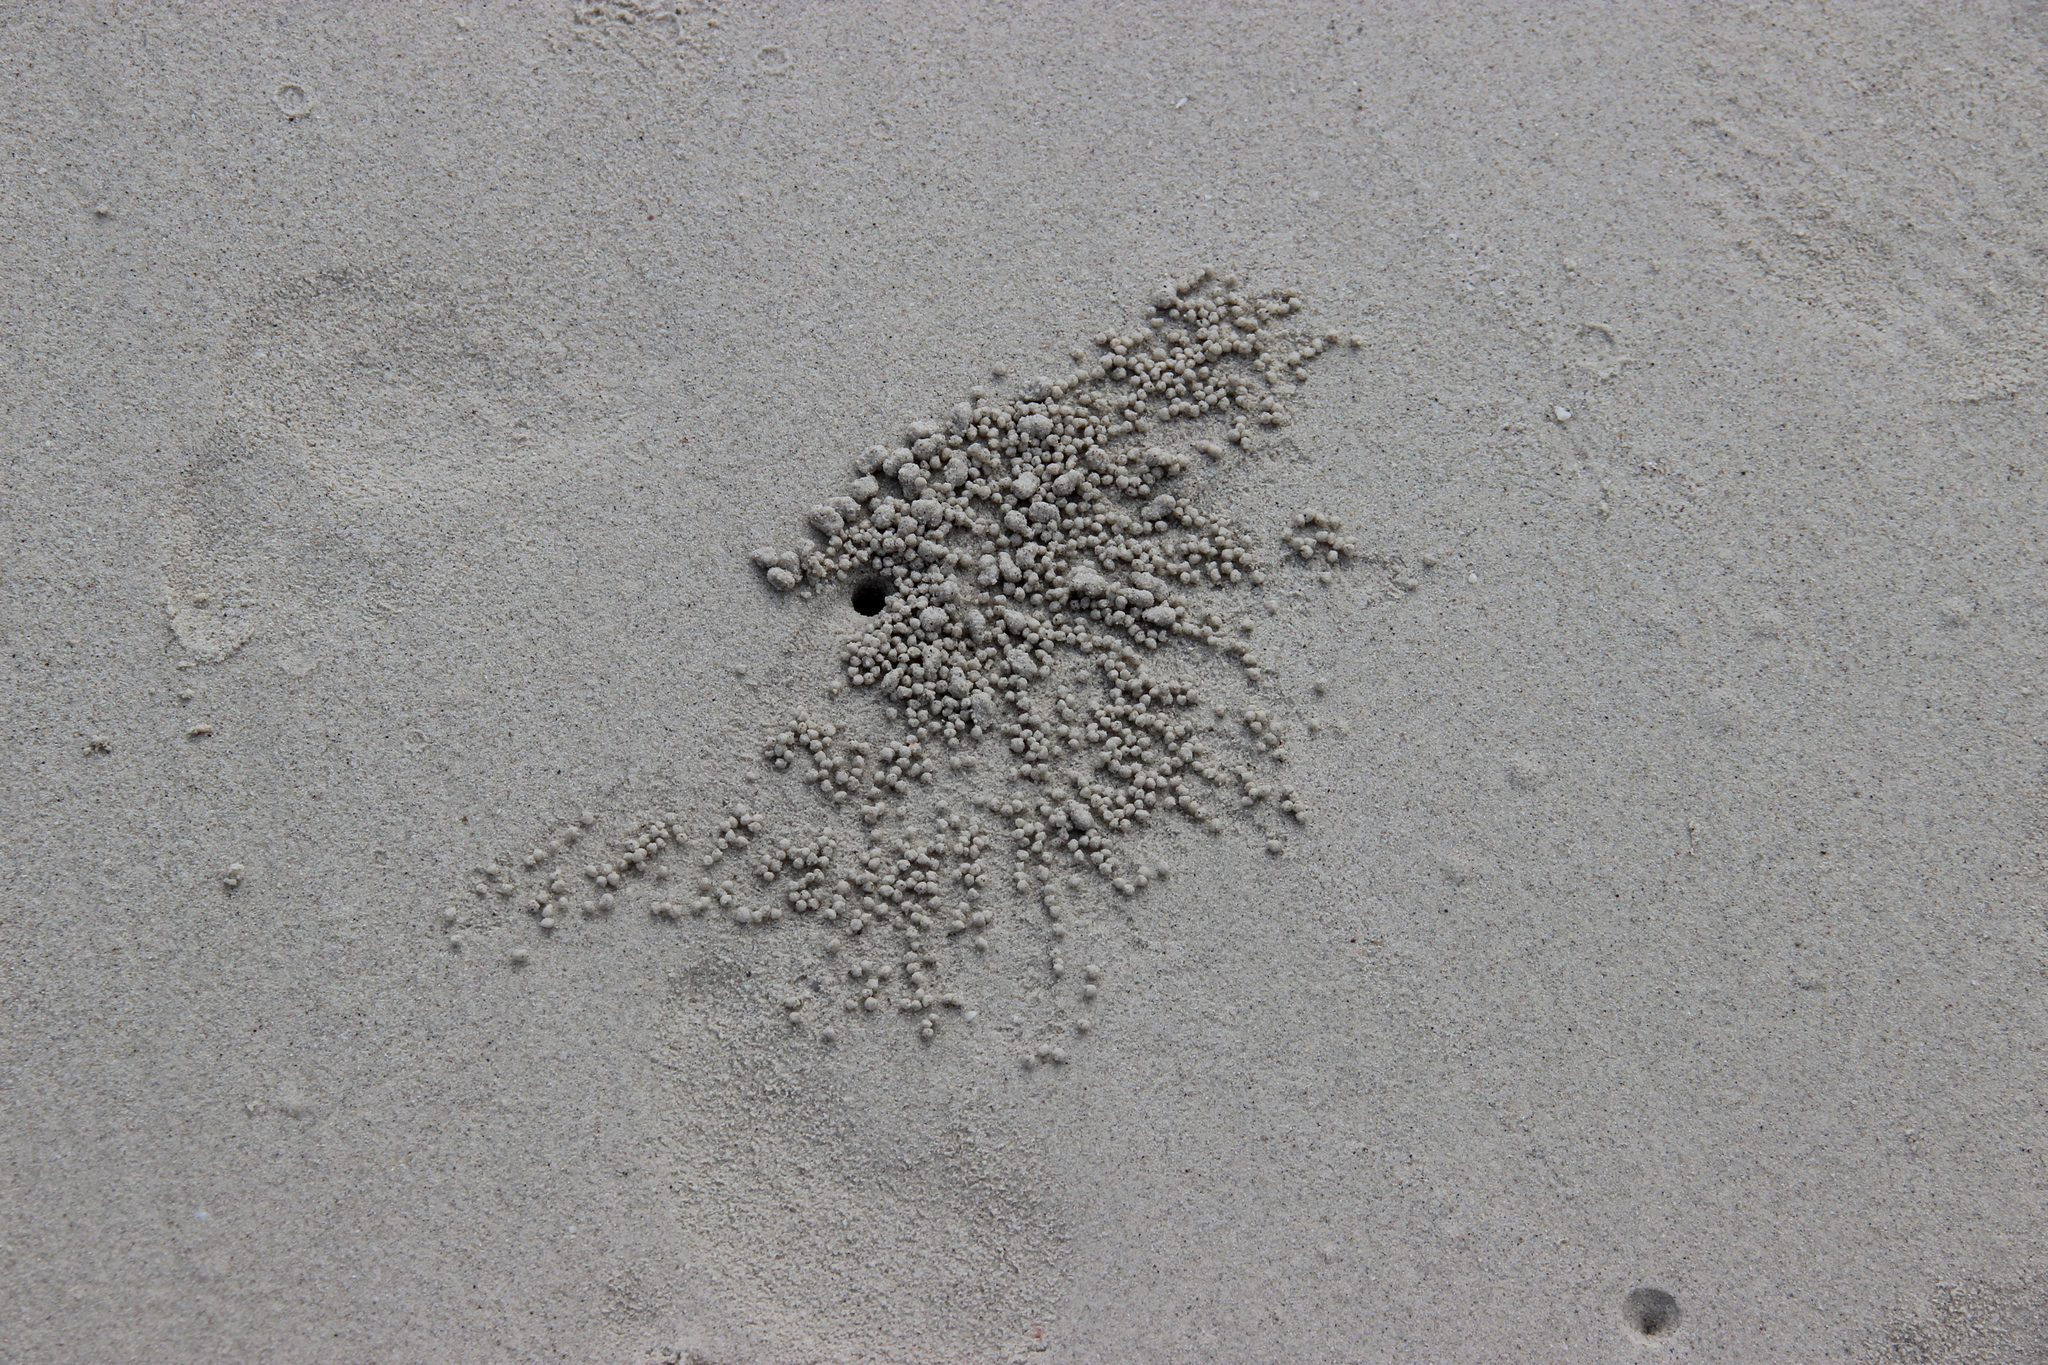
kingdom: Animalia
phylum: Arthropoda
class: Malacostraca
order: Decapoda
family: Dotillidae
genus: Dotilla
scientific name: Dotilla myctiroides
